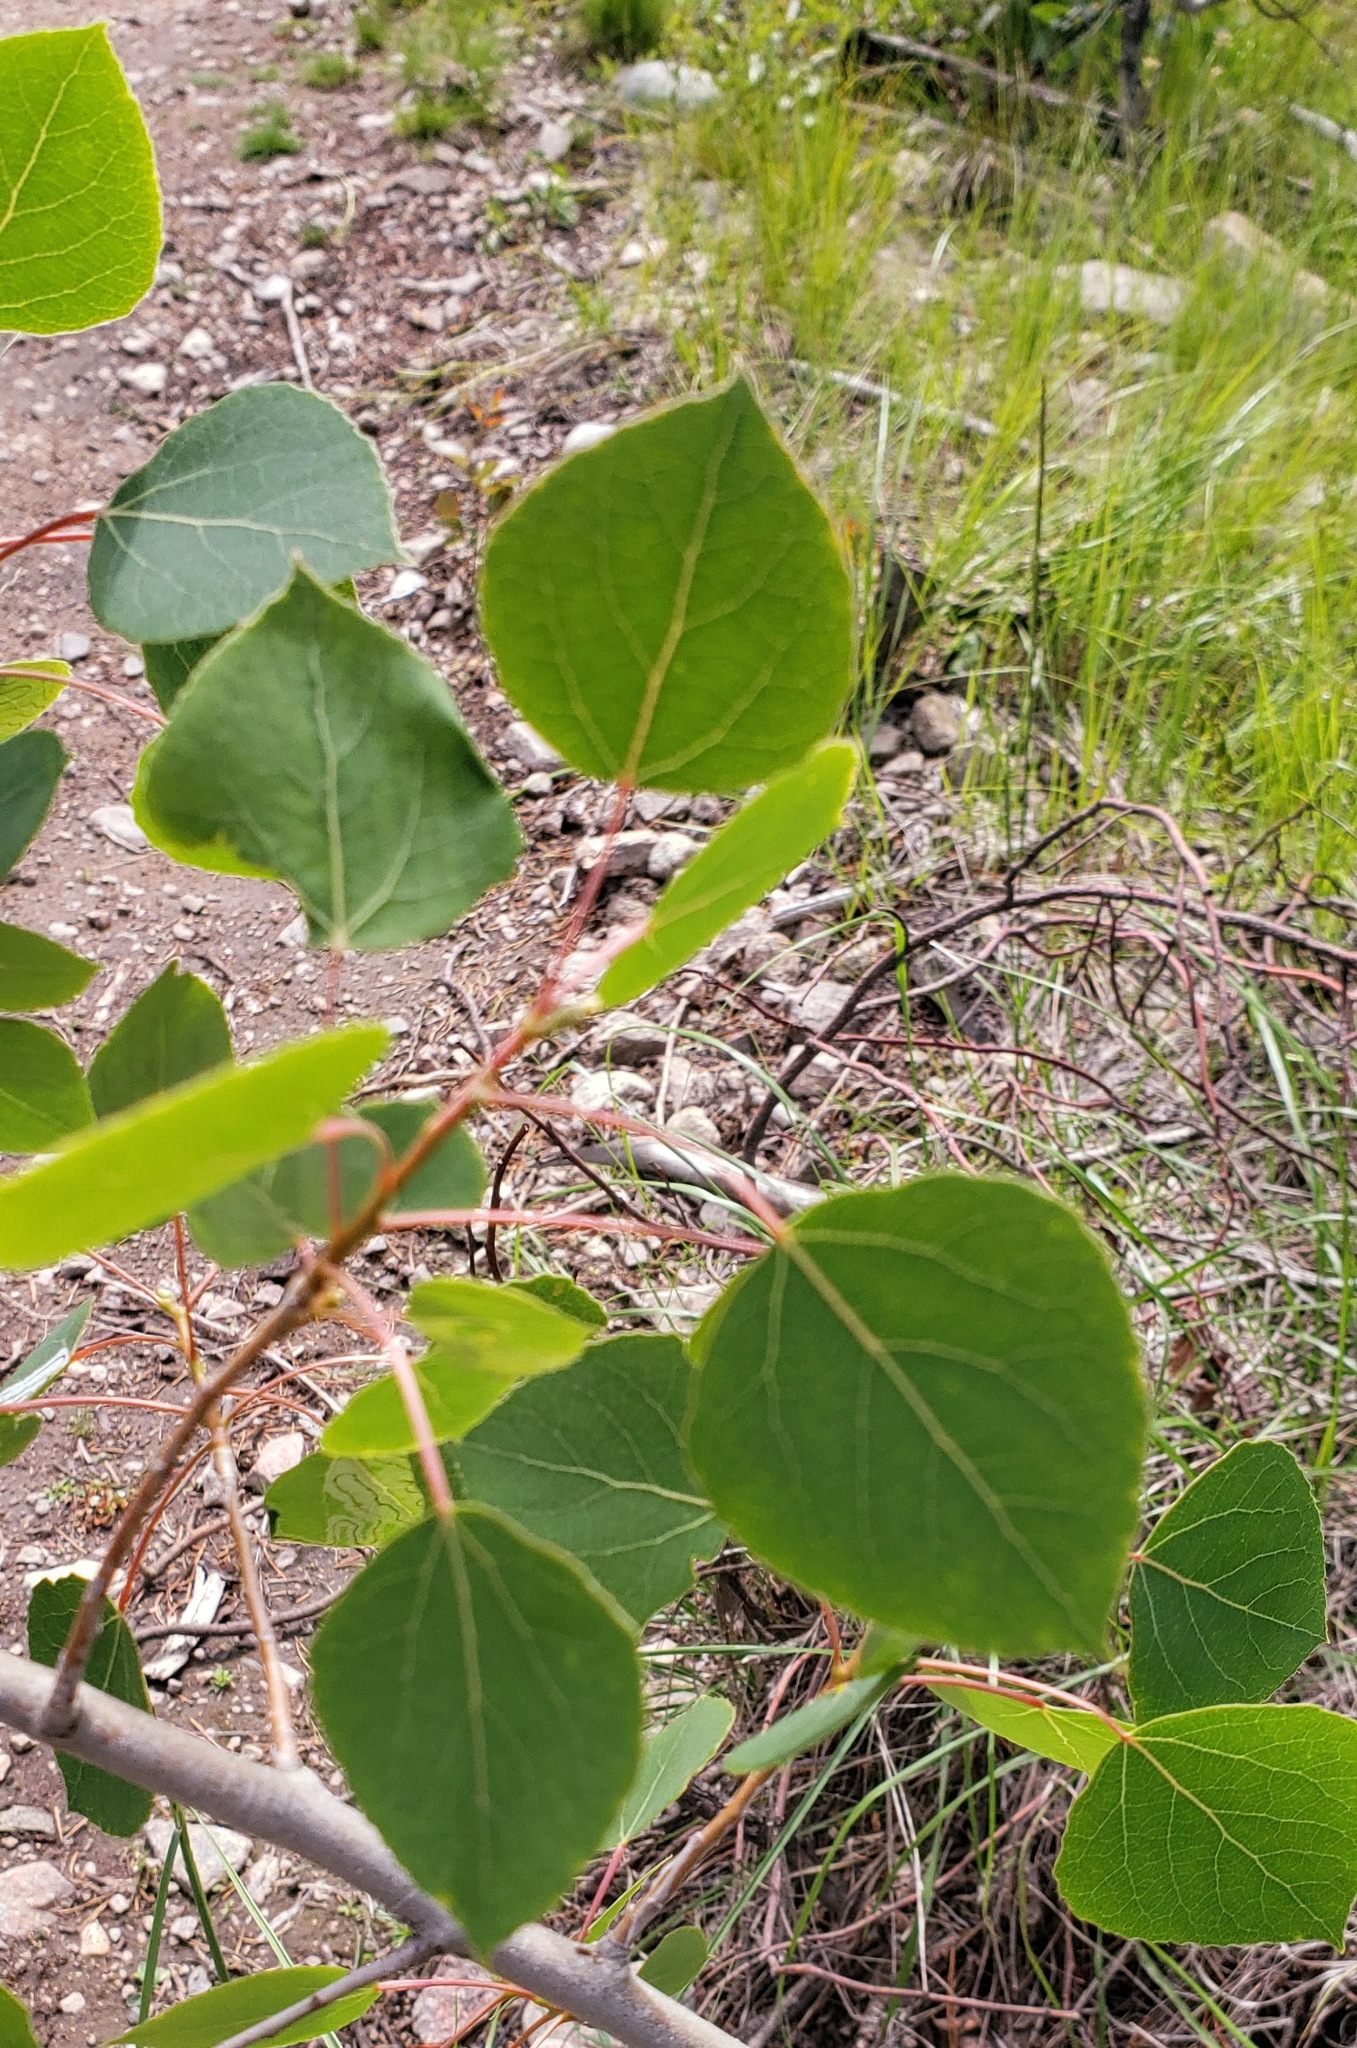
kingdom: Plantae
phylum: Tracheophyta
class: Magnoliopsida
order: Malpighiales
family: Salicaceae
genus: Populus
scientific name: Populus tremuloides
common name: Quaking aspen
